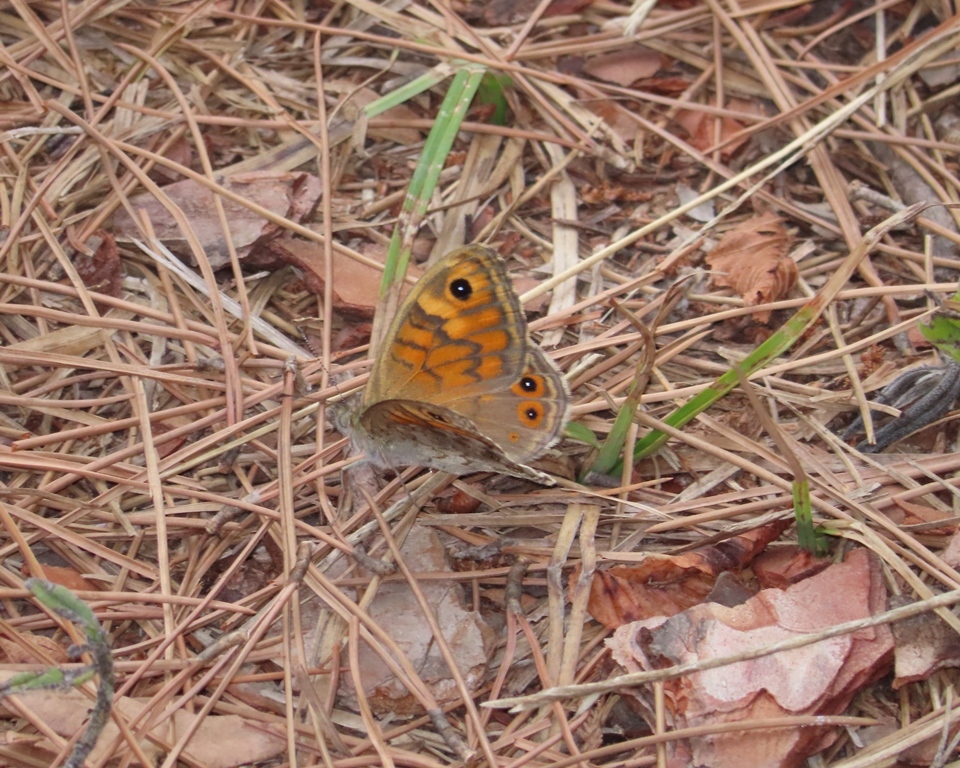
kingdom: Animalia
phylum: Arthropoda
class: Insecta
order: Lepidoptera
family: Nymphalidae
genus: Pararge
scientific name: Pararge Lasiommata megera
